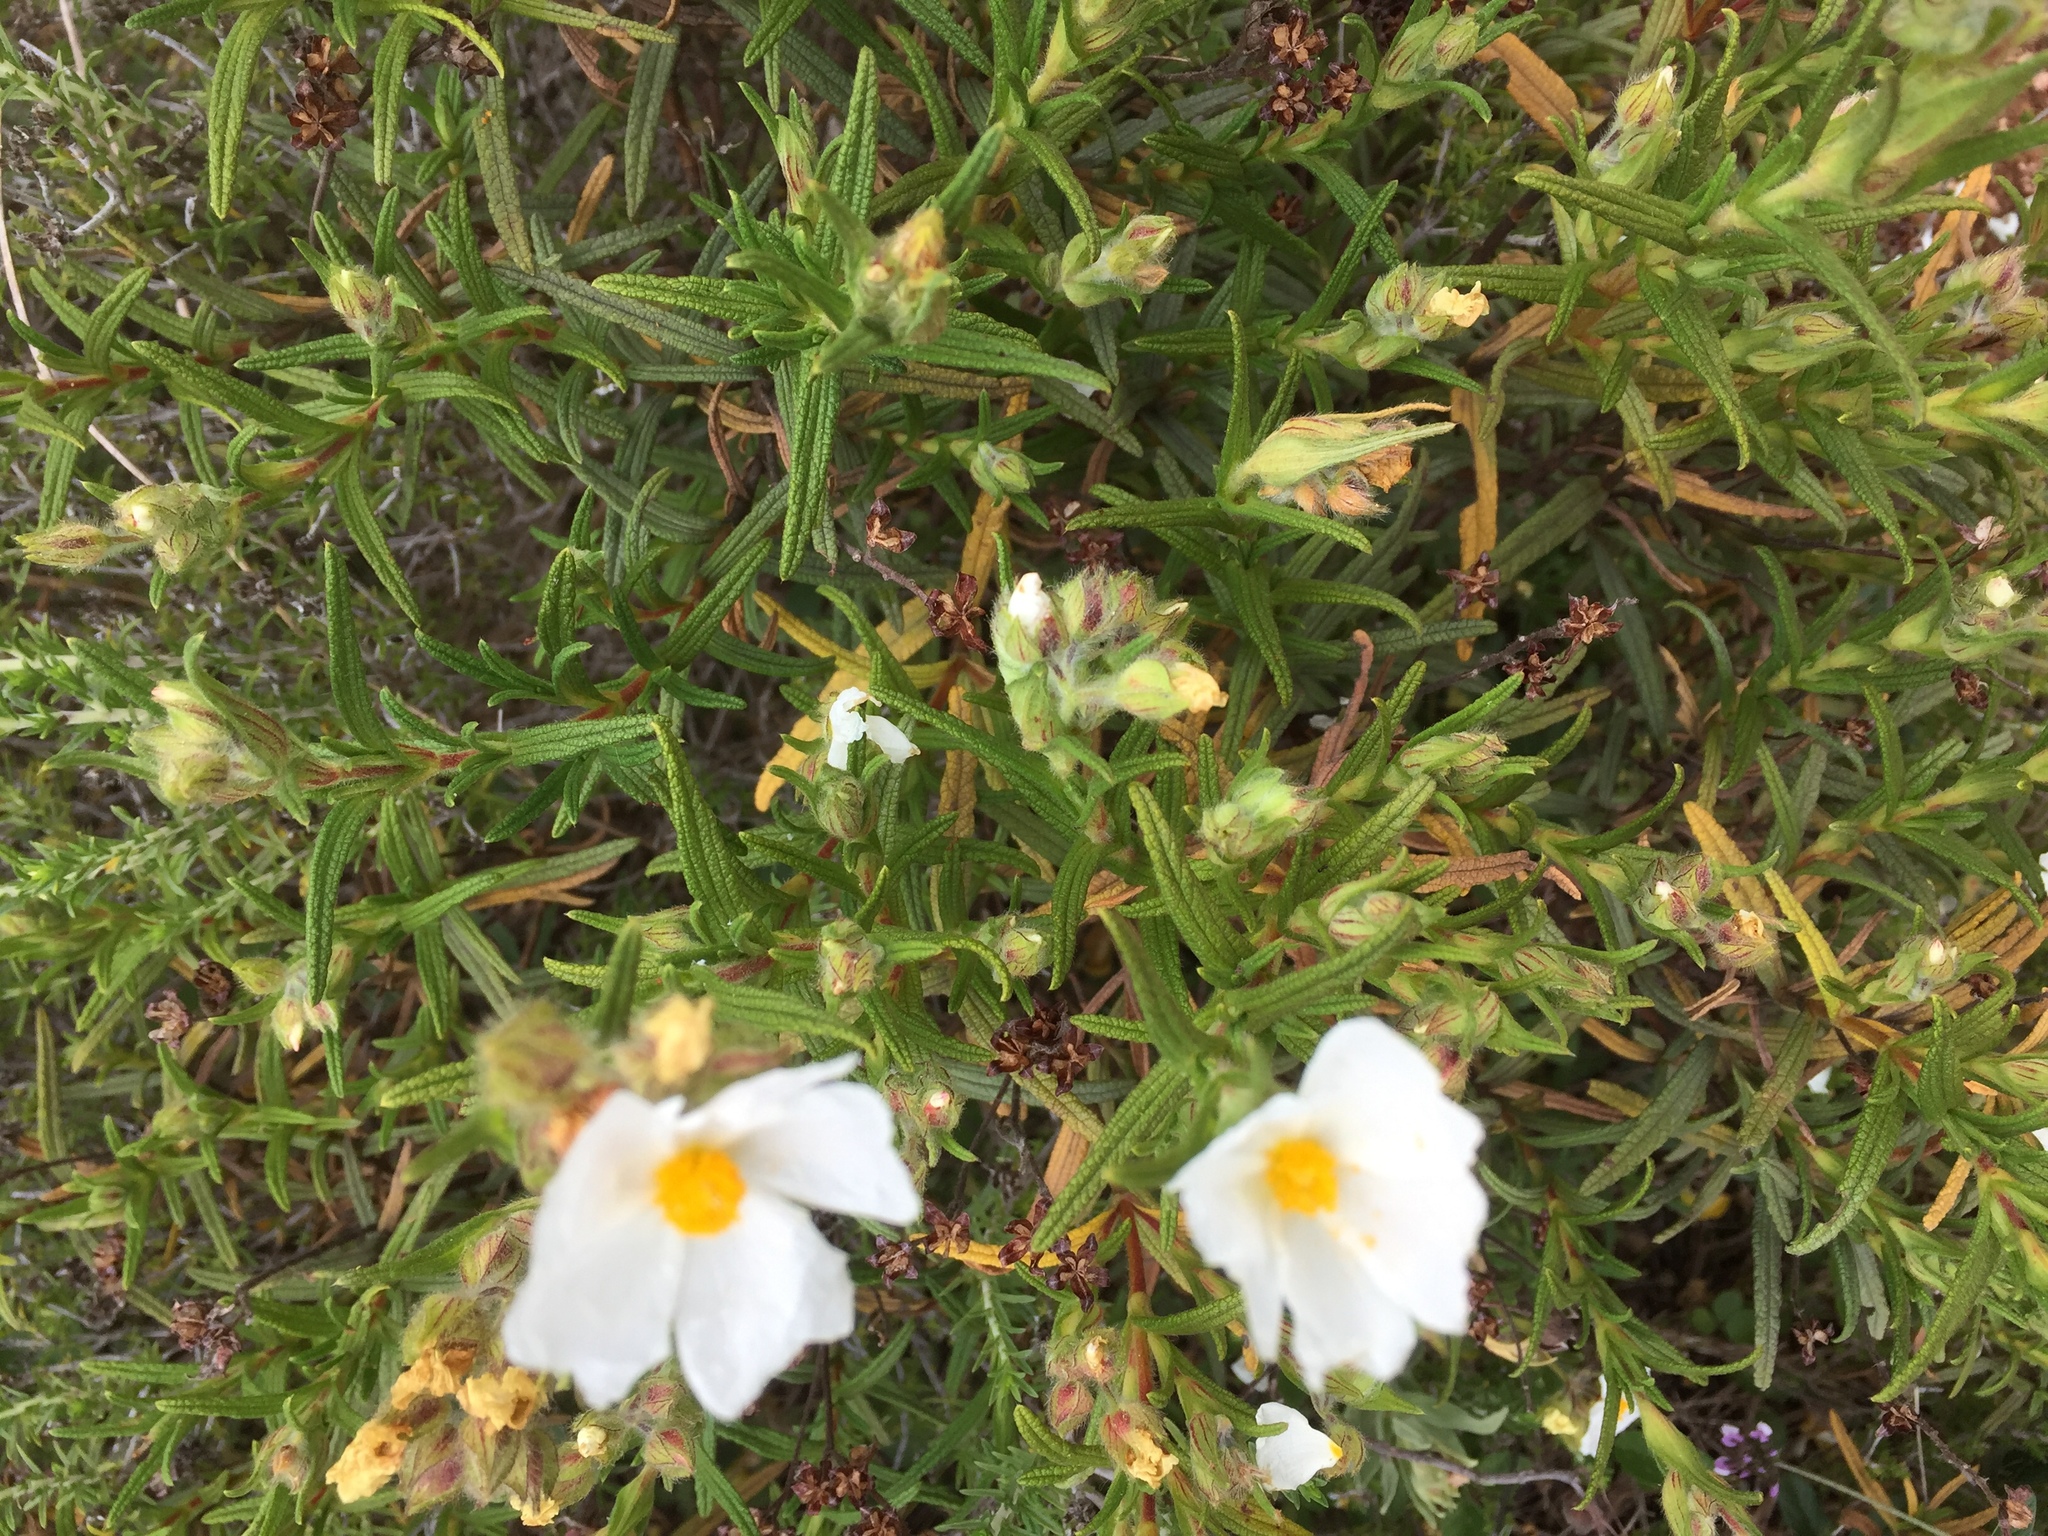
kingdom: Plantae
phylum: Tracheophyta
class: Magnoliopsida
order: Malvales
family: Cistaceae
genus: Cistus
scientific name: Cistus monspeliensis
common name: Montpelier cistus
